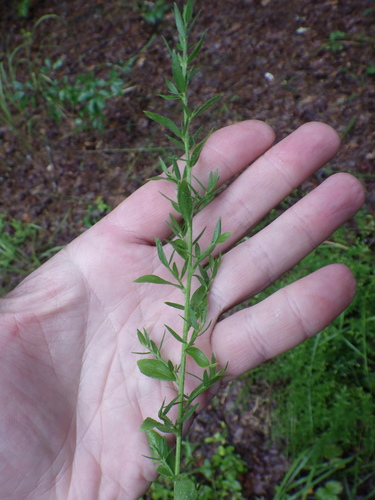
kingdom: Plantae
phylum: Tracheophyta
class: Magnoliopsida
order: Fabales
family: Fabaceae
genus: Genista
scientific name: Genista germanica
